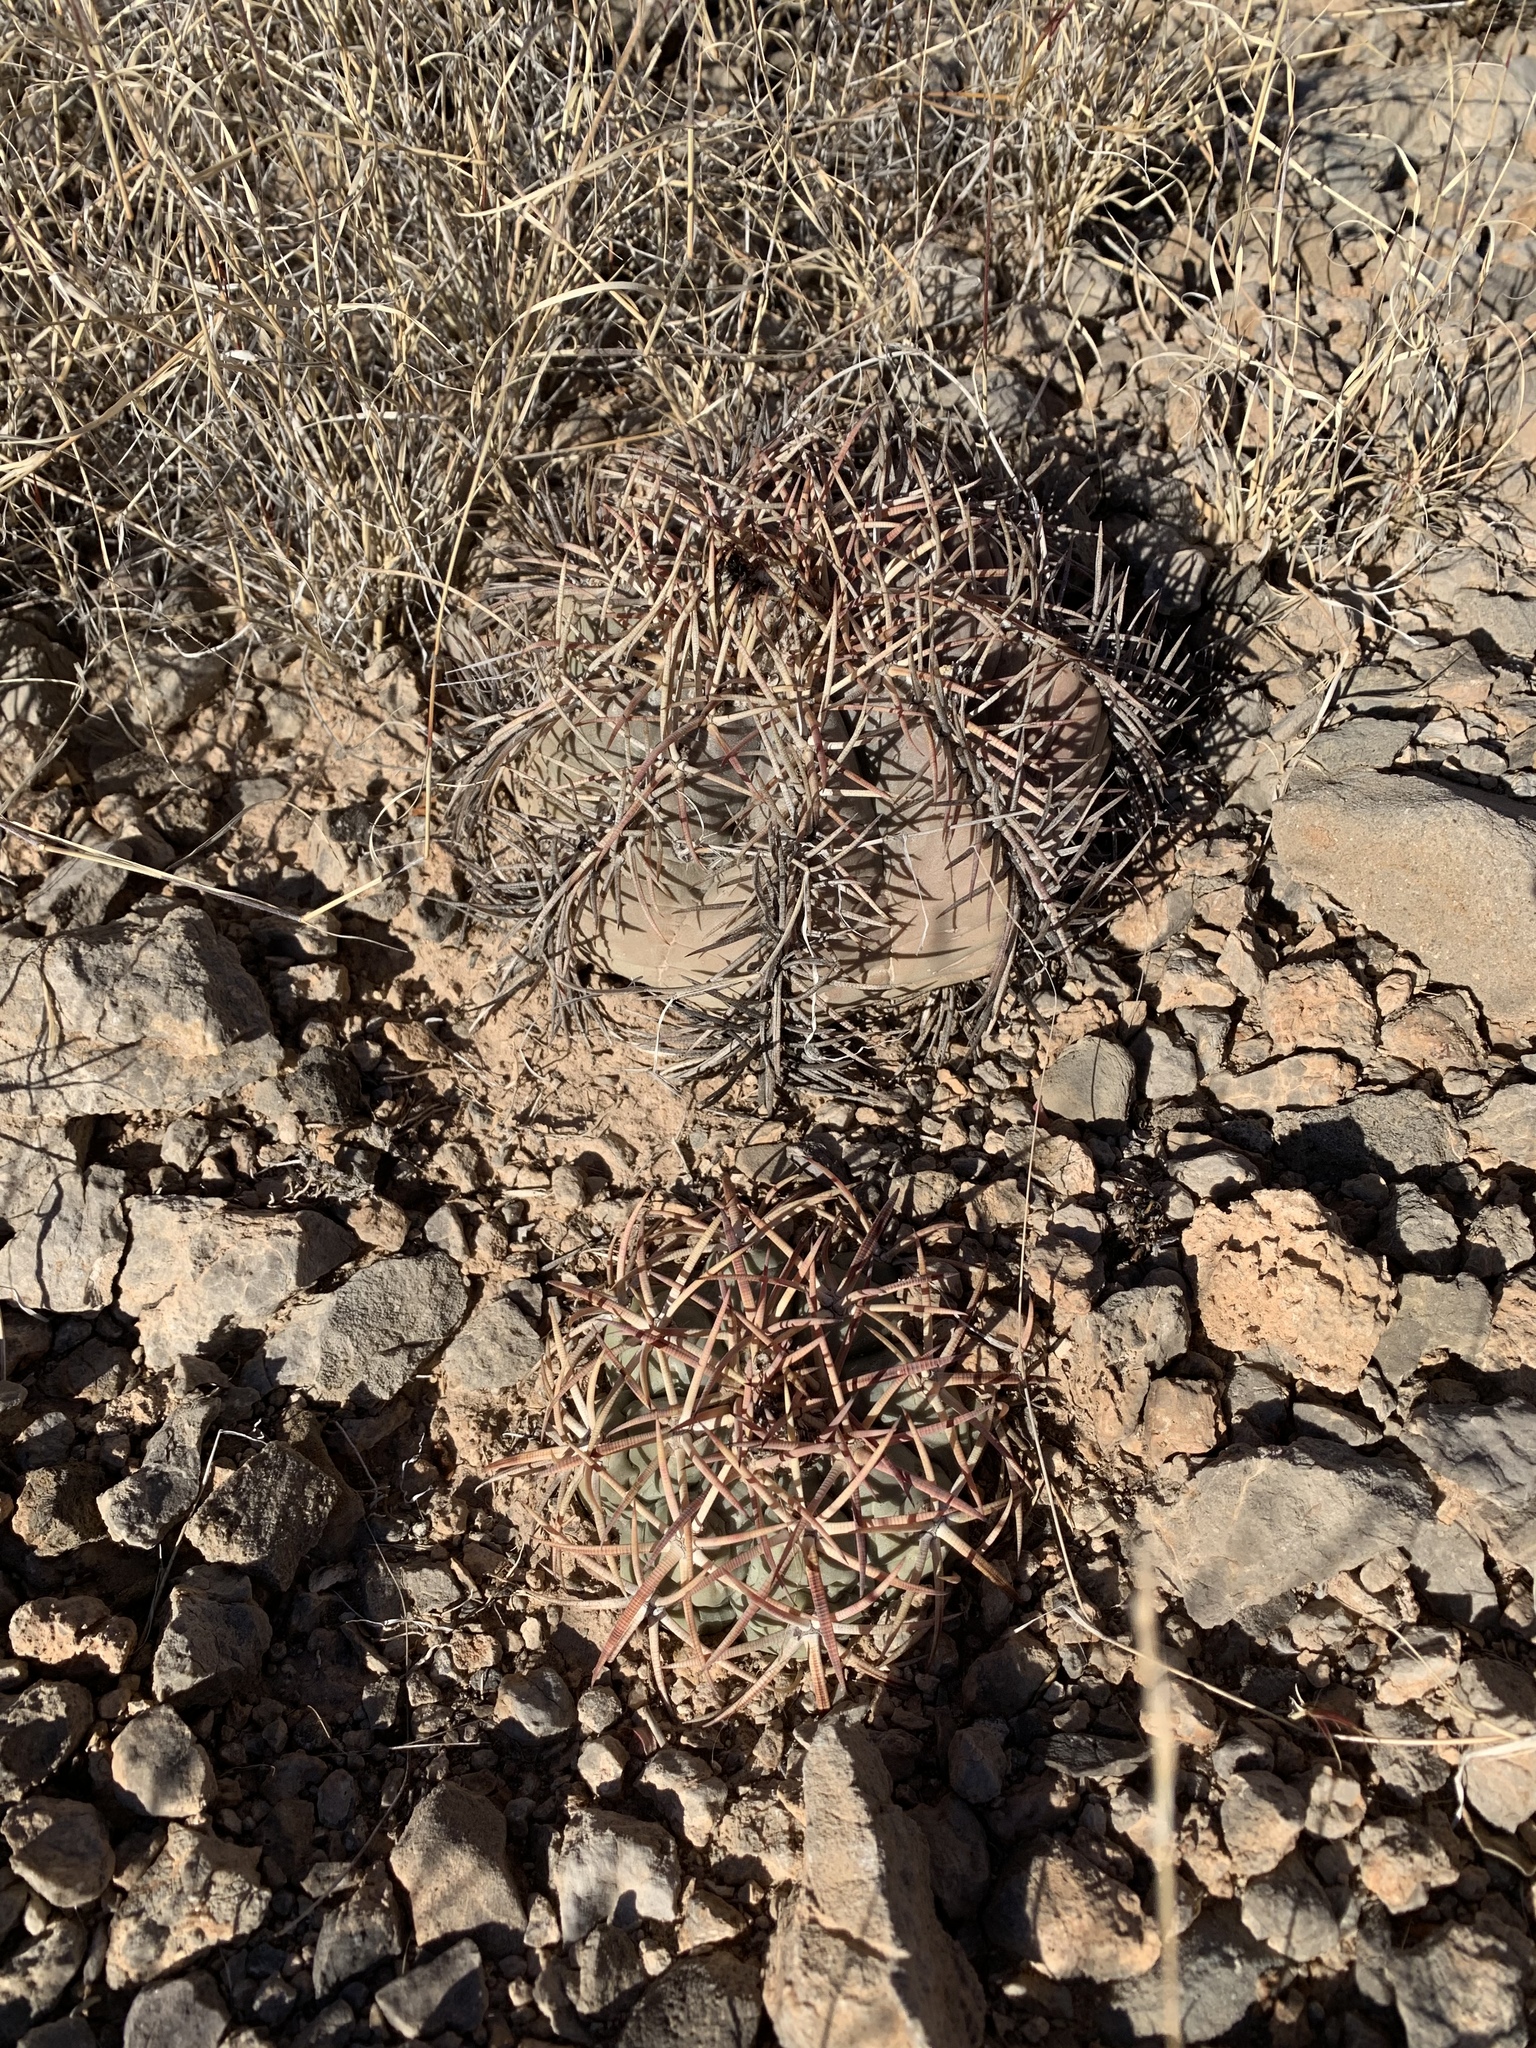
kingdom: Plantae
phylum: Tracheophyta
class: Magnoliopsida
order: Caryophyllales
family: Cactaceae
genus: Echinocactus
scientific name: Echinocactus horizonthalonius
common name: Devilshead
